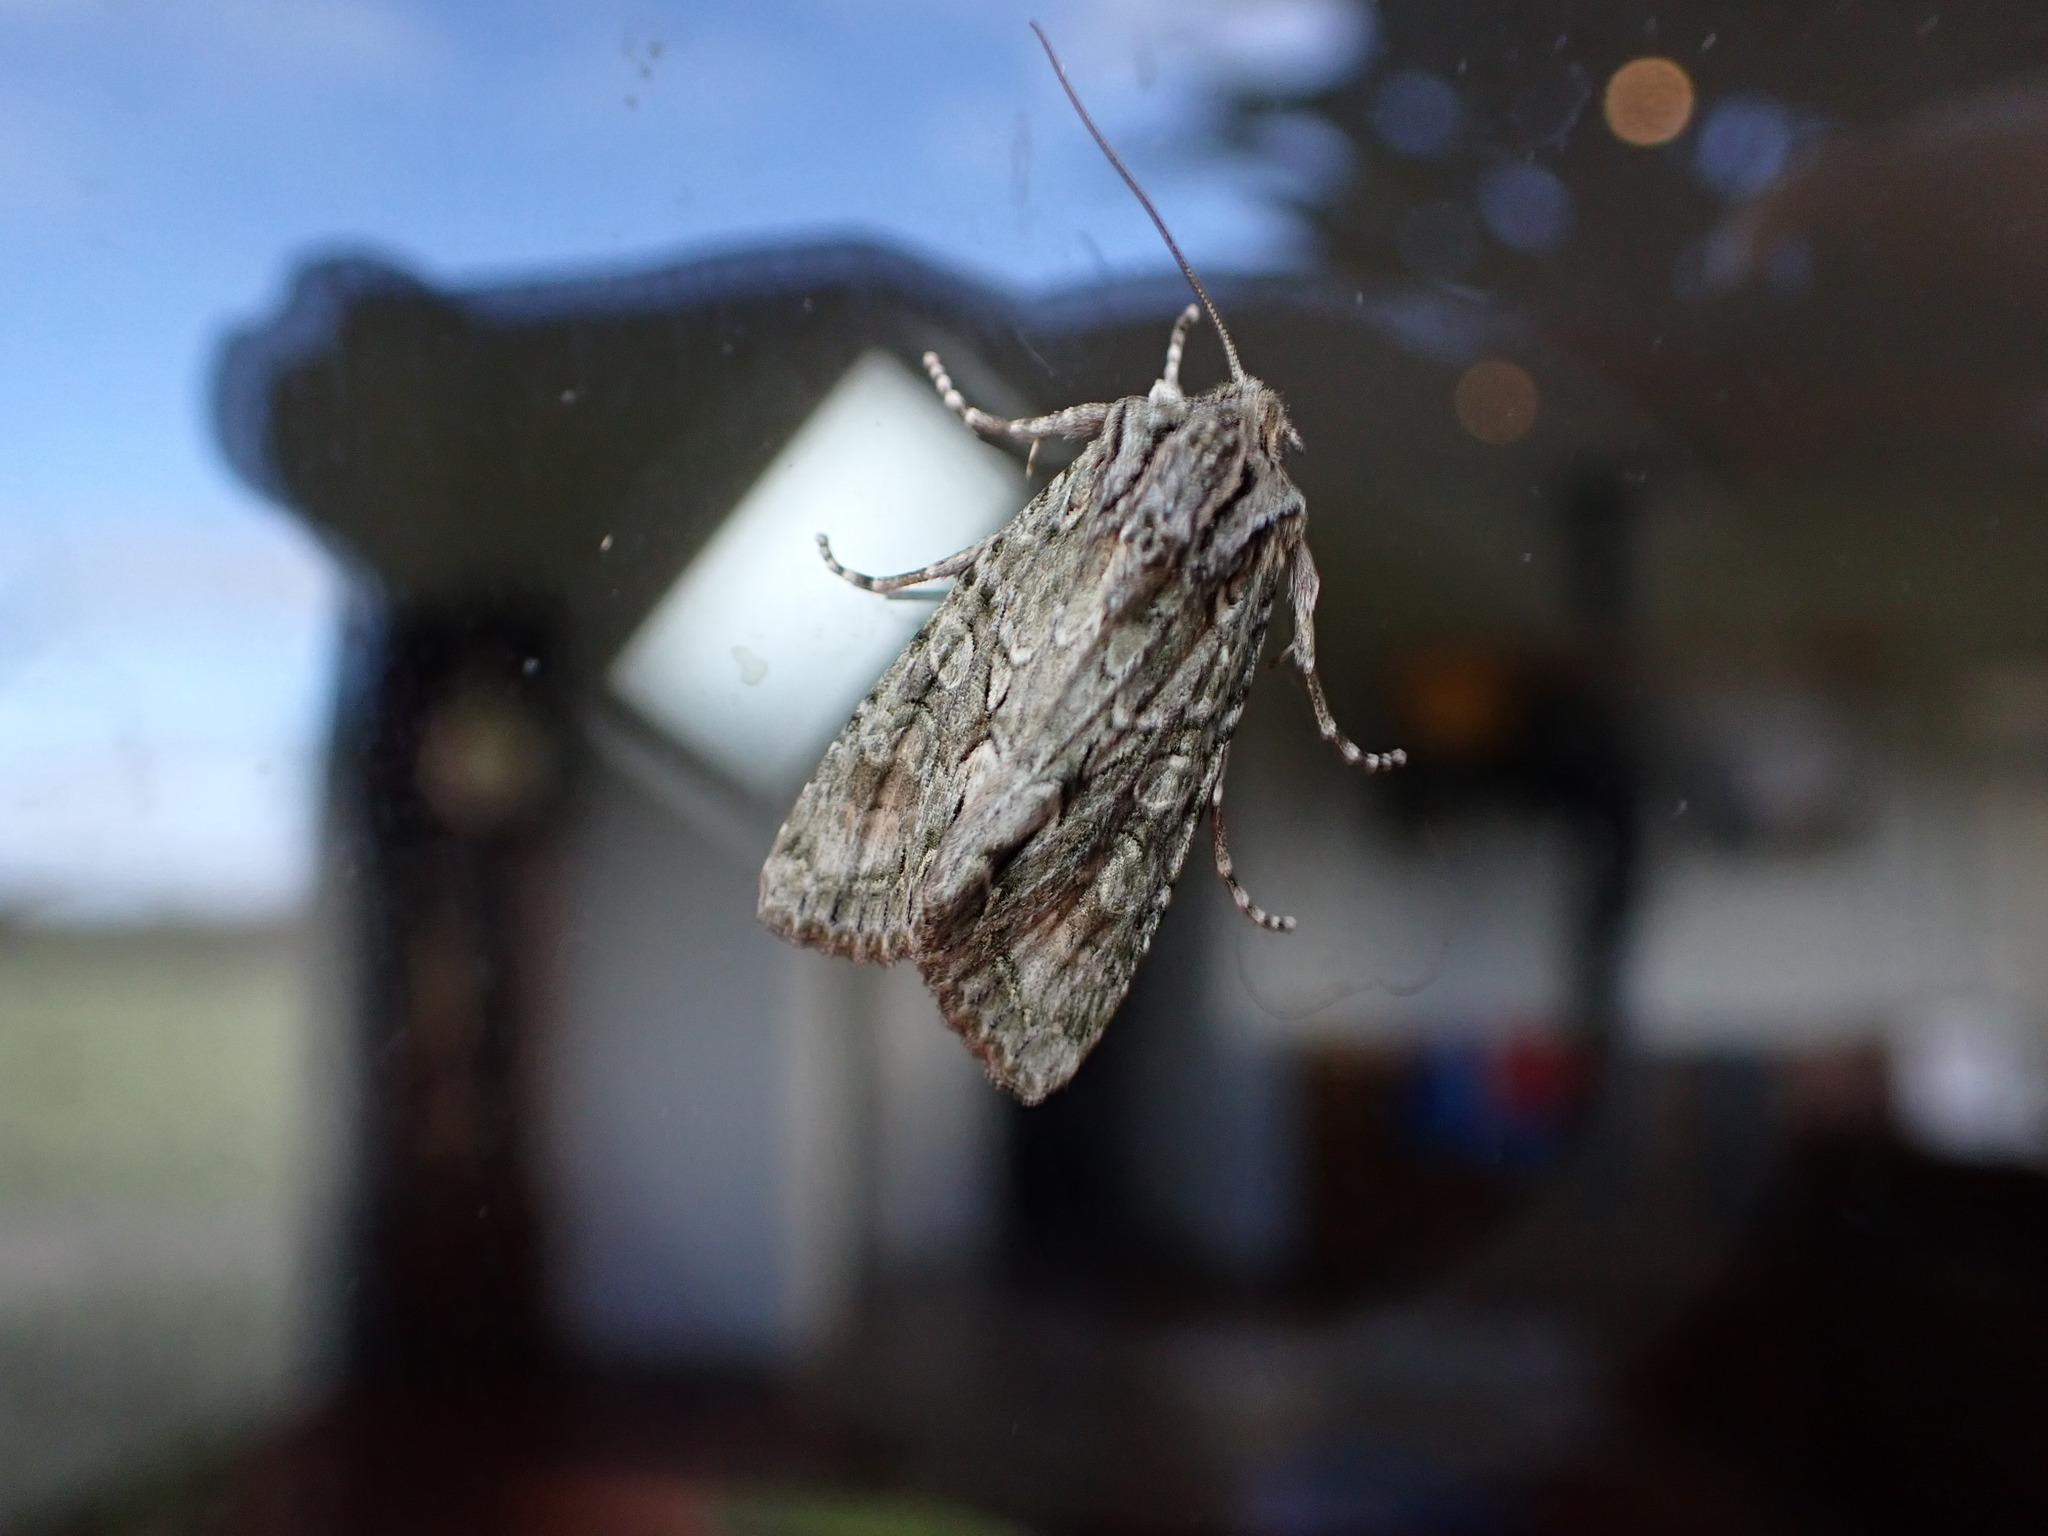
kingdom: Animalia
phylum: Arthropoda
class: Insecta
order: Lepidoptera
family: Noctuidae
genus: Ichneutica
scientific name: Ichneutica mutans
